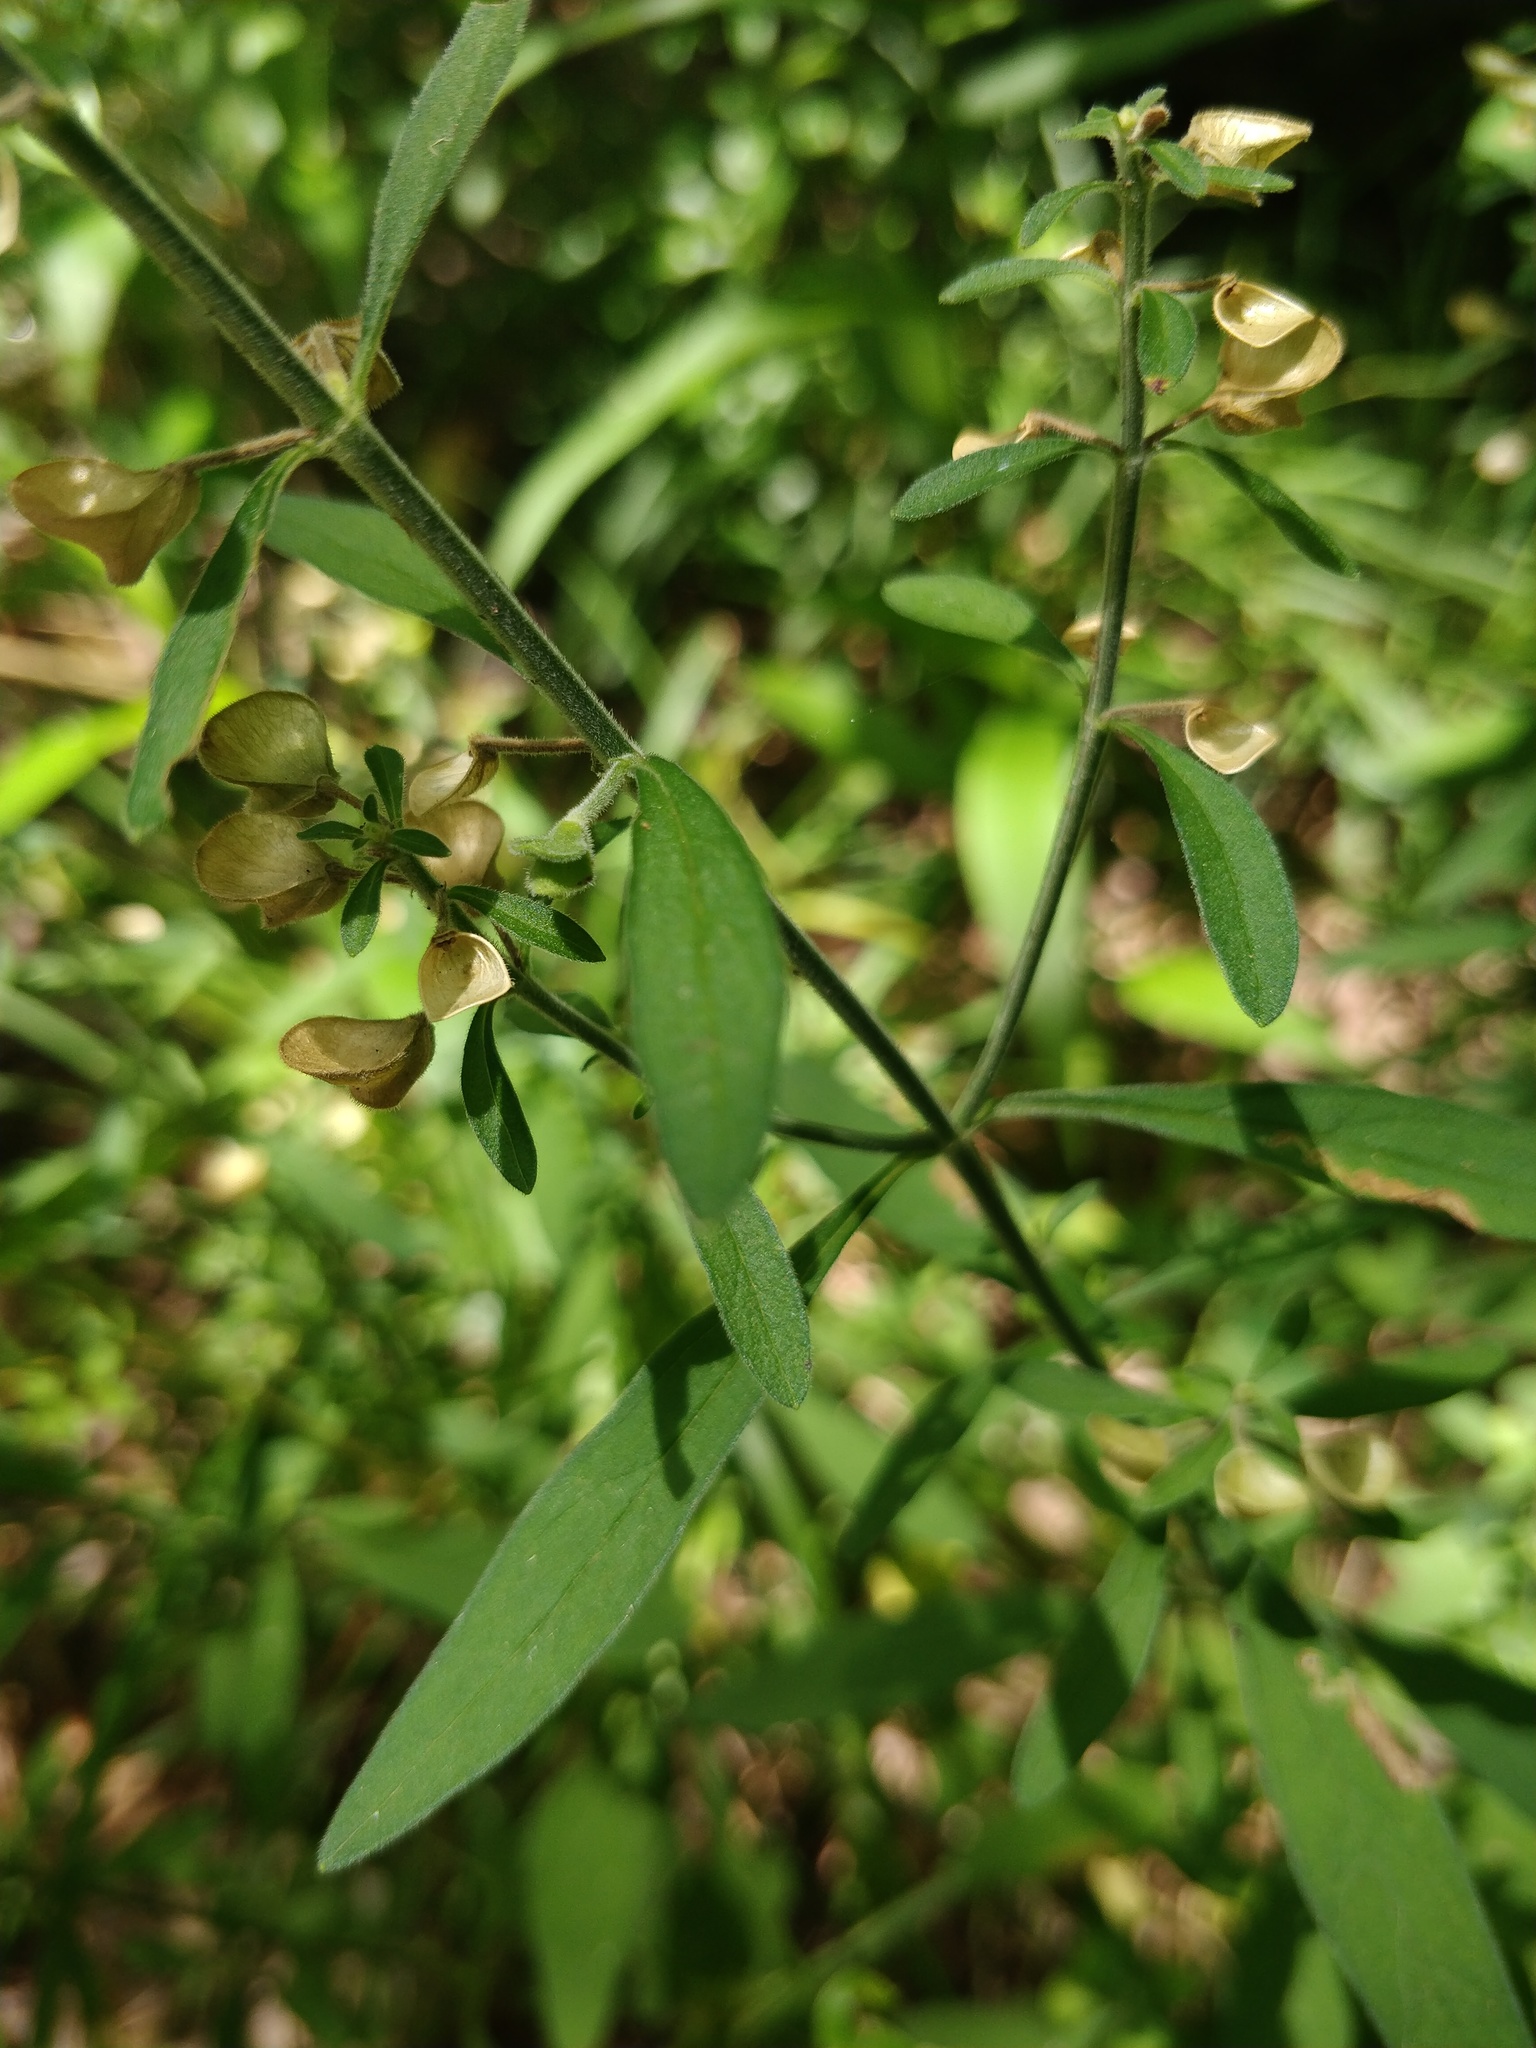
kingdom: Plantae
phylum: Tracheophyta
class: Magnoliopsida
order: Lamiales
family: Lamiaceae
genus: Scutellaria
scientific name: Scutellaria integrifolia
